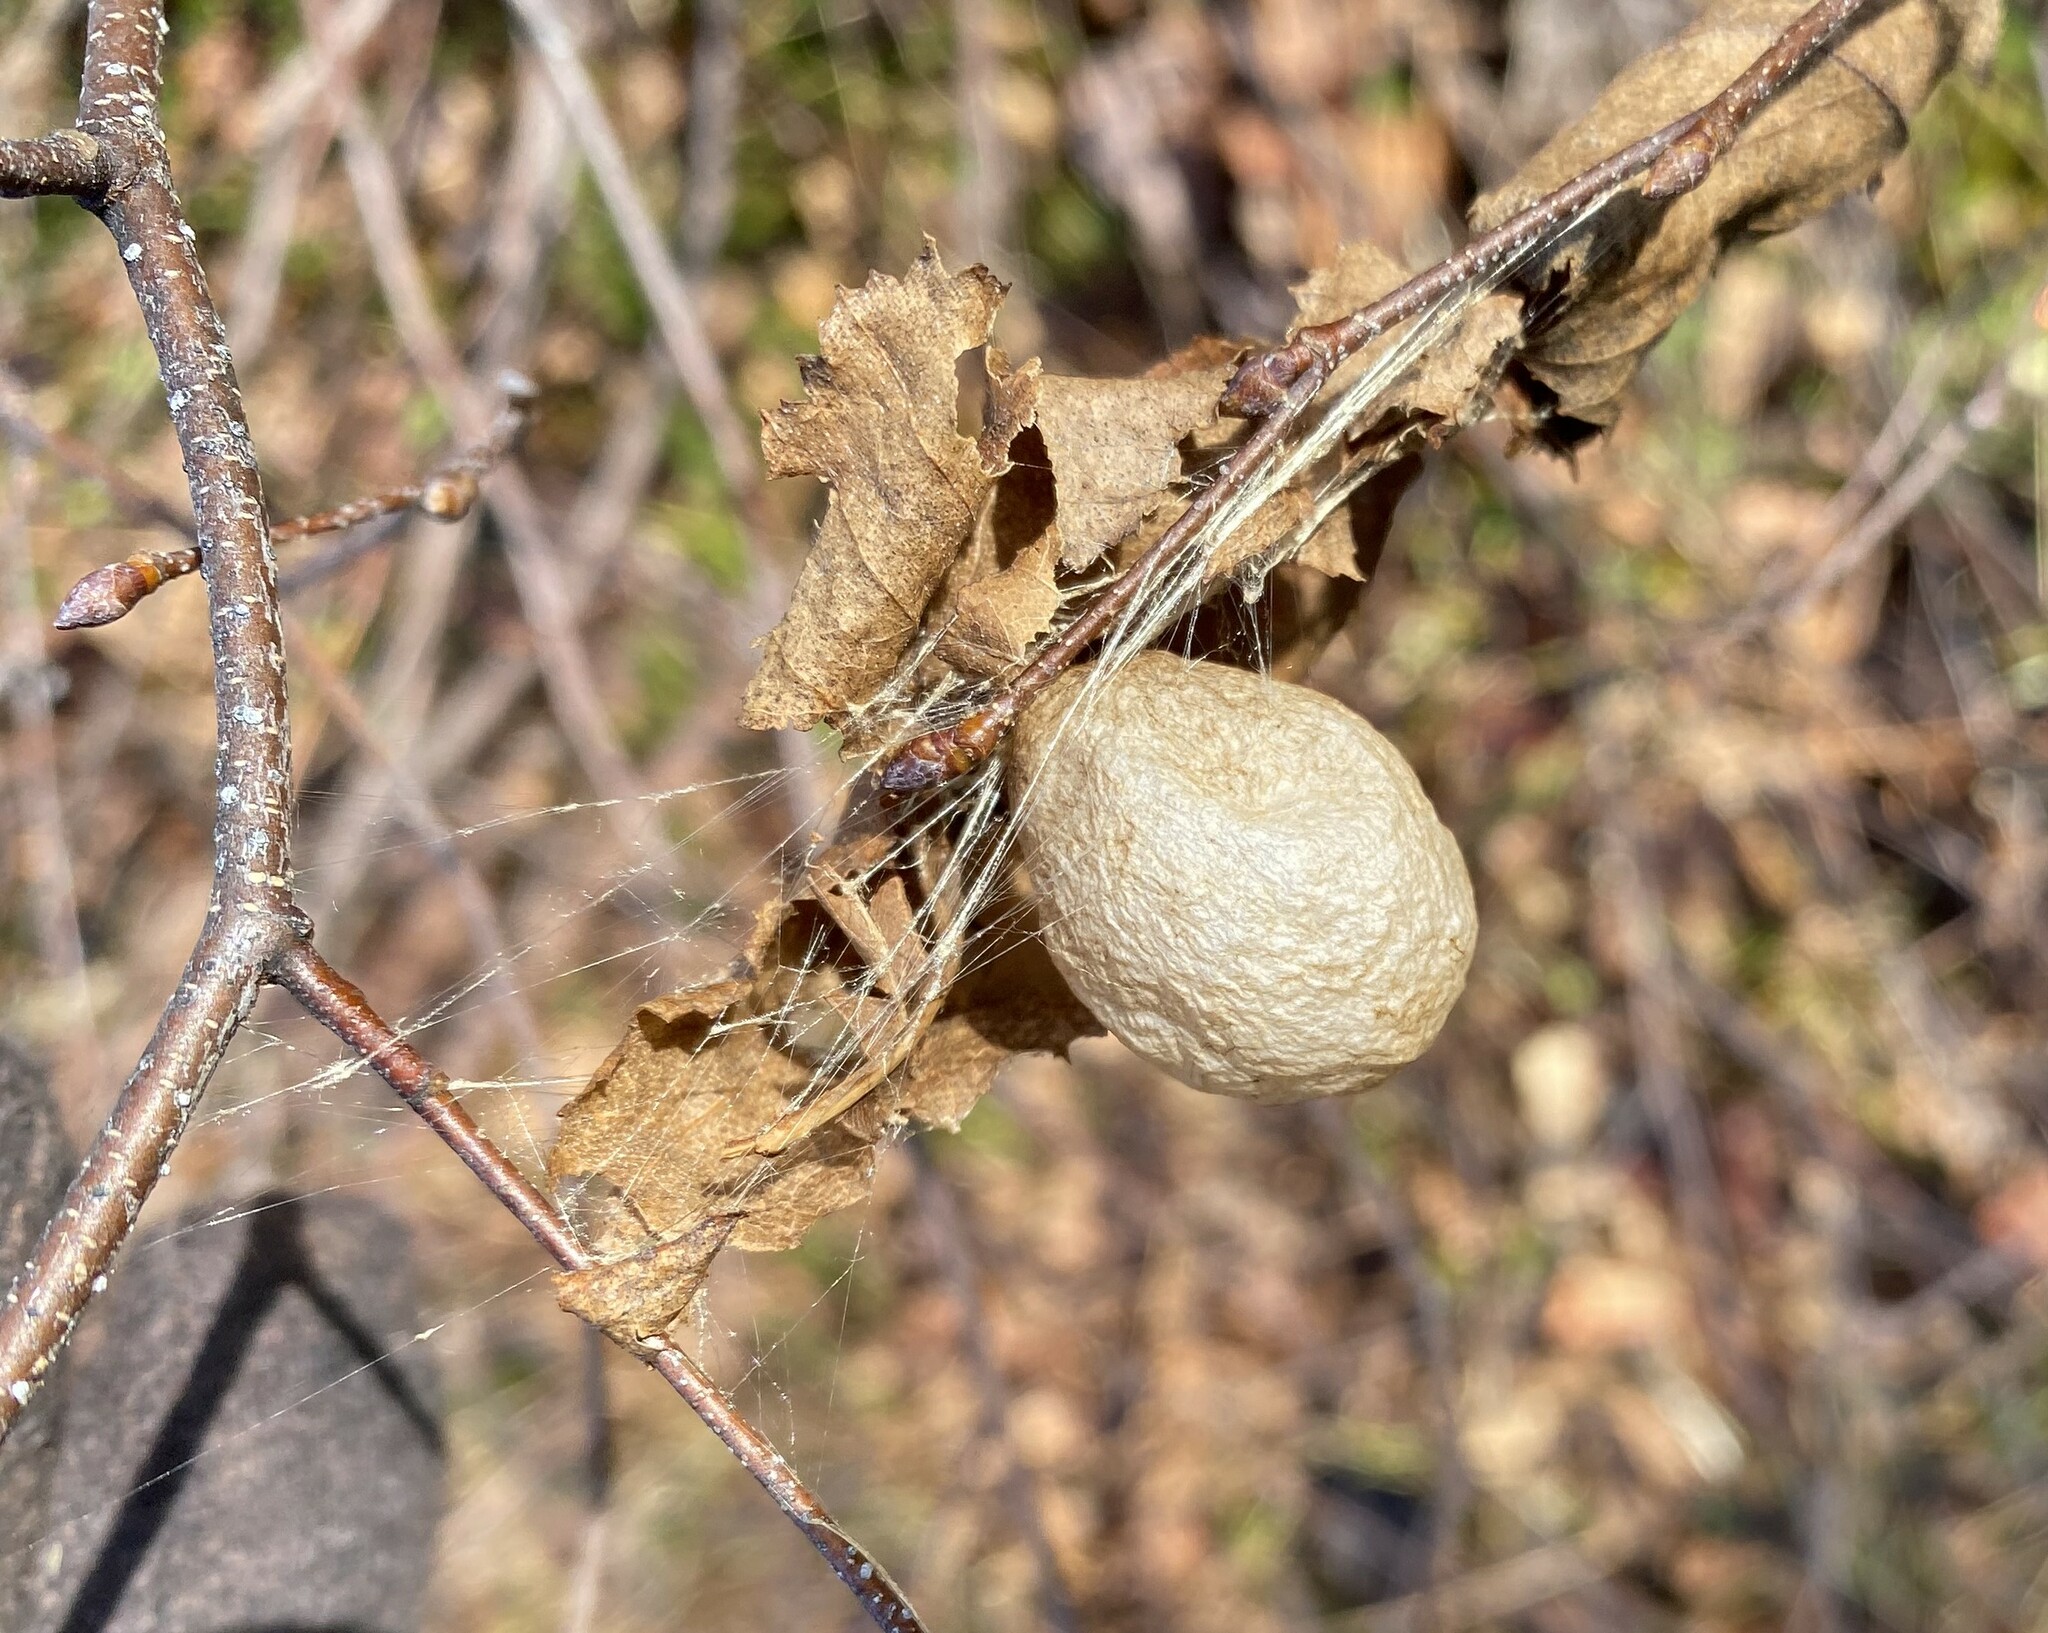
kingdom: Animalia
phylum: Arthropoda
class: Arachnida
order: Araneae
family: Araneidae
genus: Argiope
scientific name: Argiope aurantia
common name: Orb weavers
